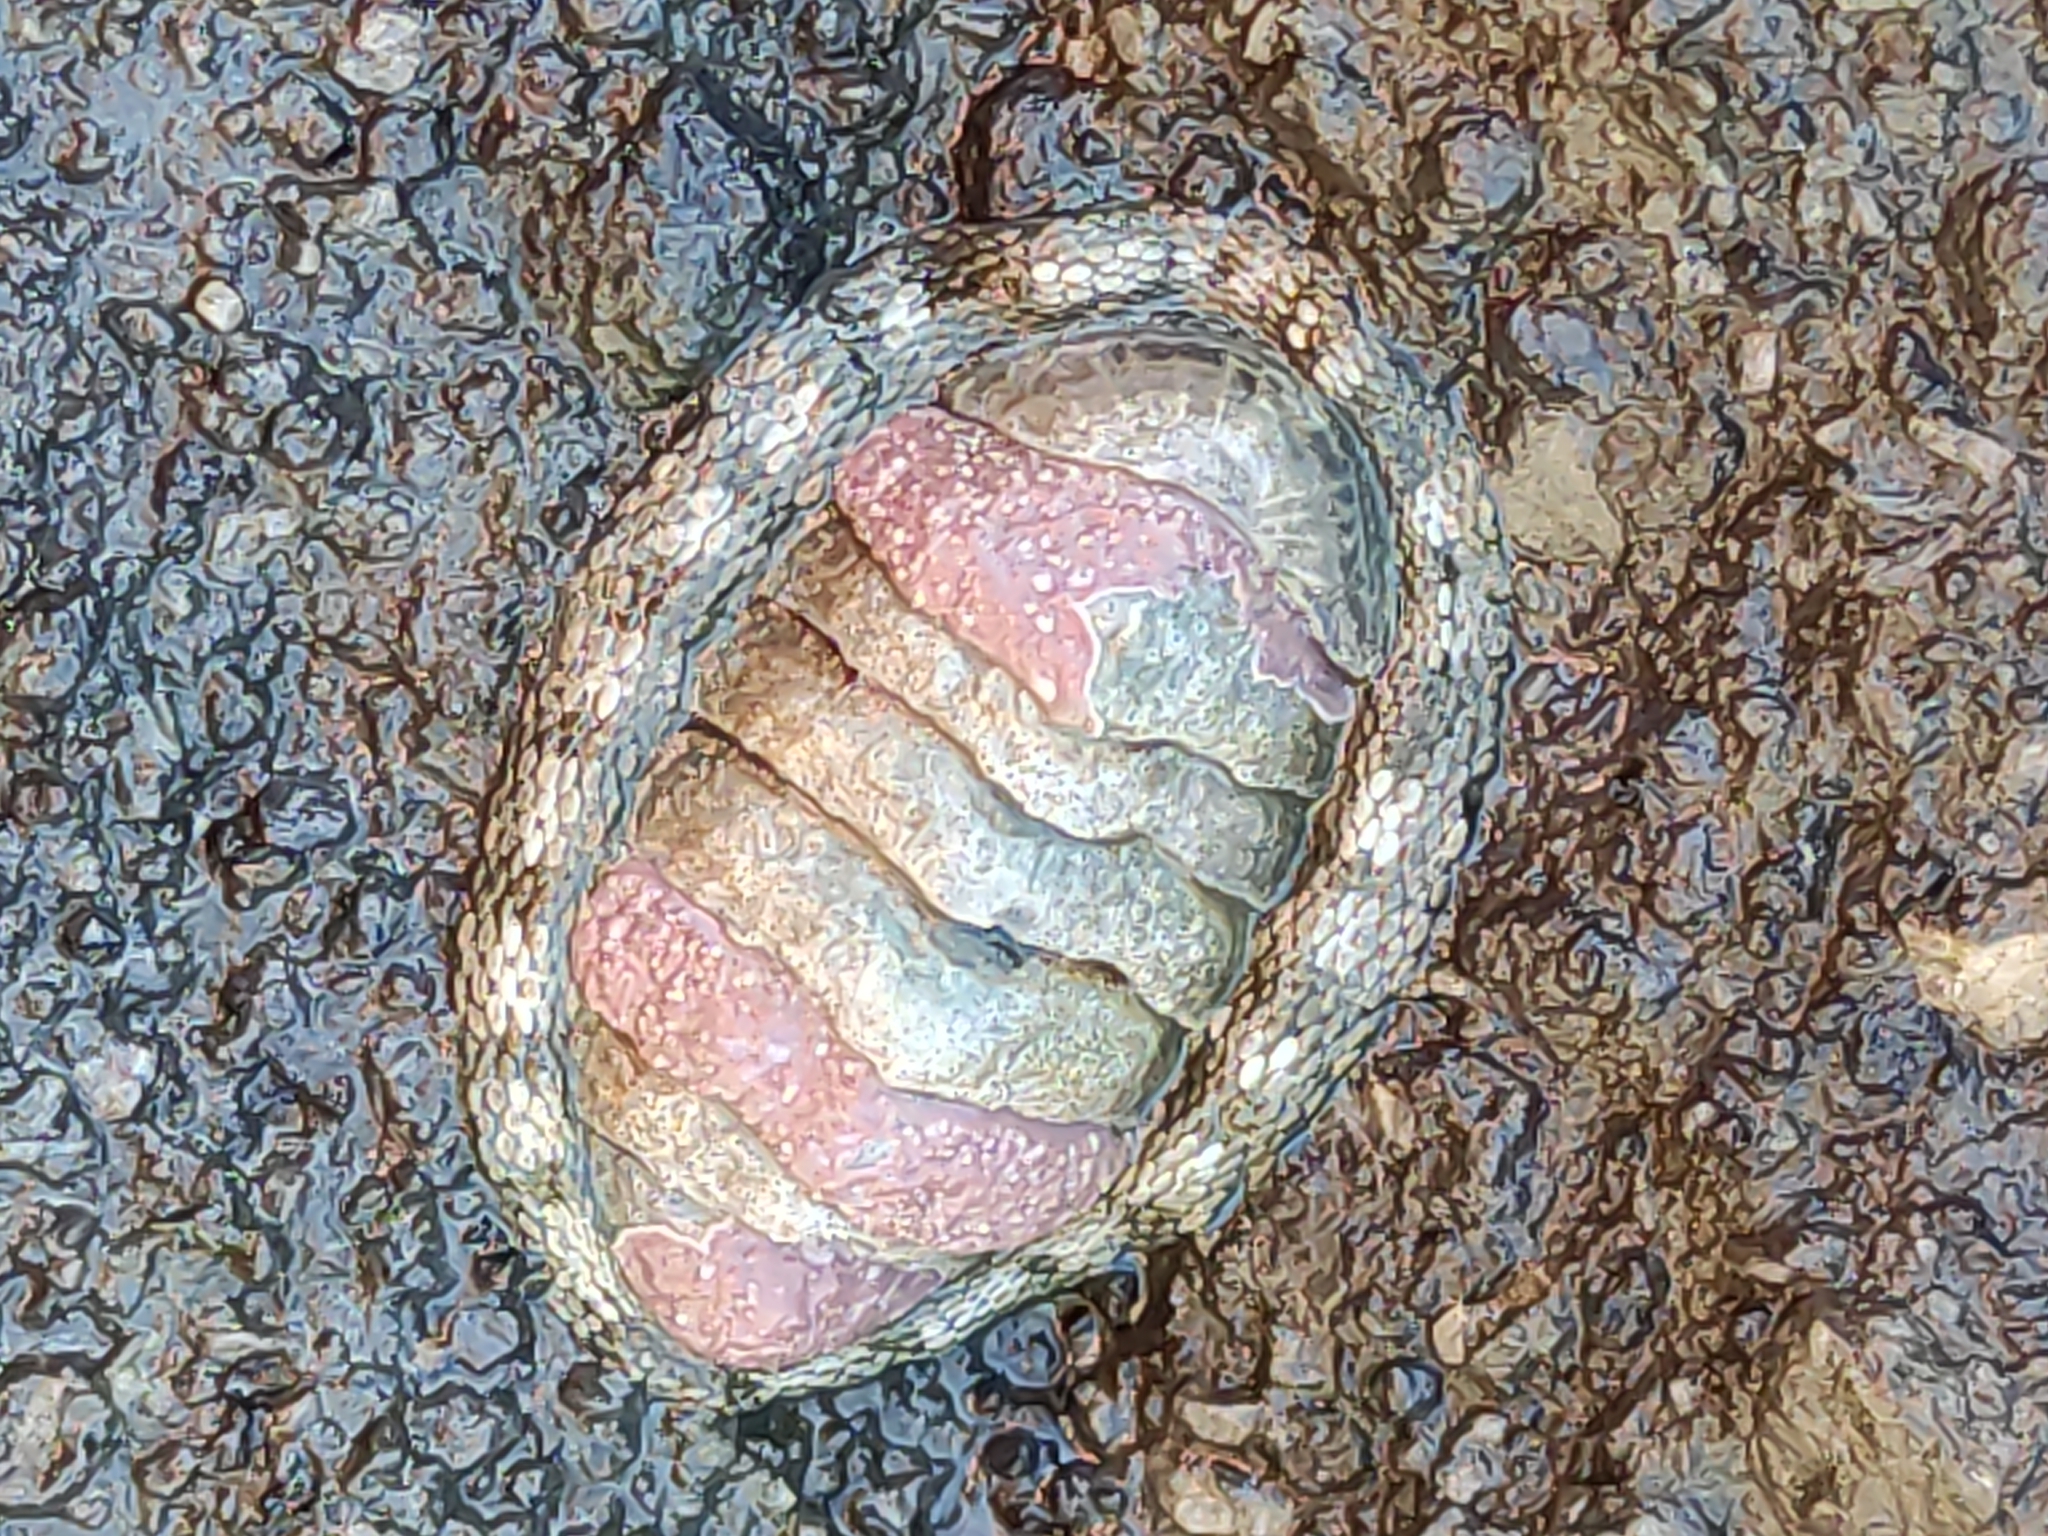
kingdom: Animalia
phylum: Mollusca
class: Polyplacophora
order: Chitonida
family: Chitonidae
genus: Sypharochiton
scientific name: Sypharochiton pelliserpentis
